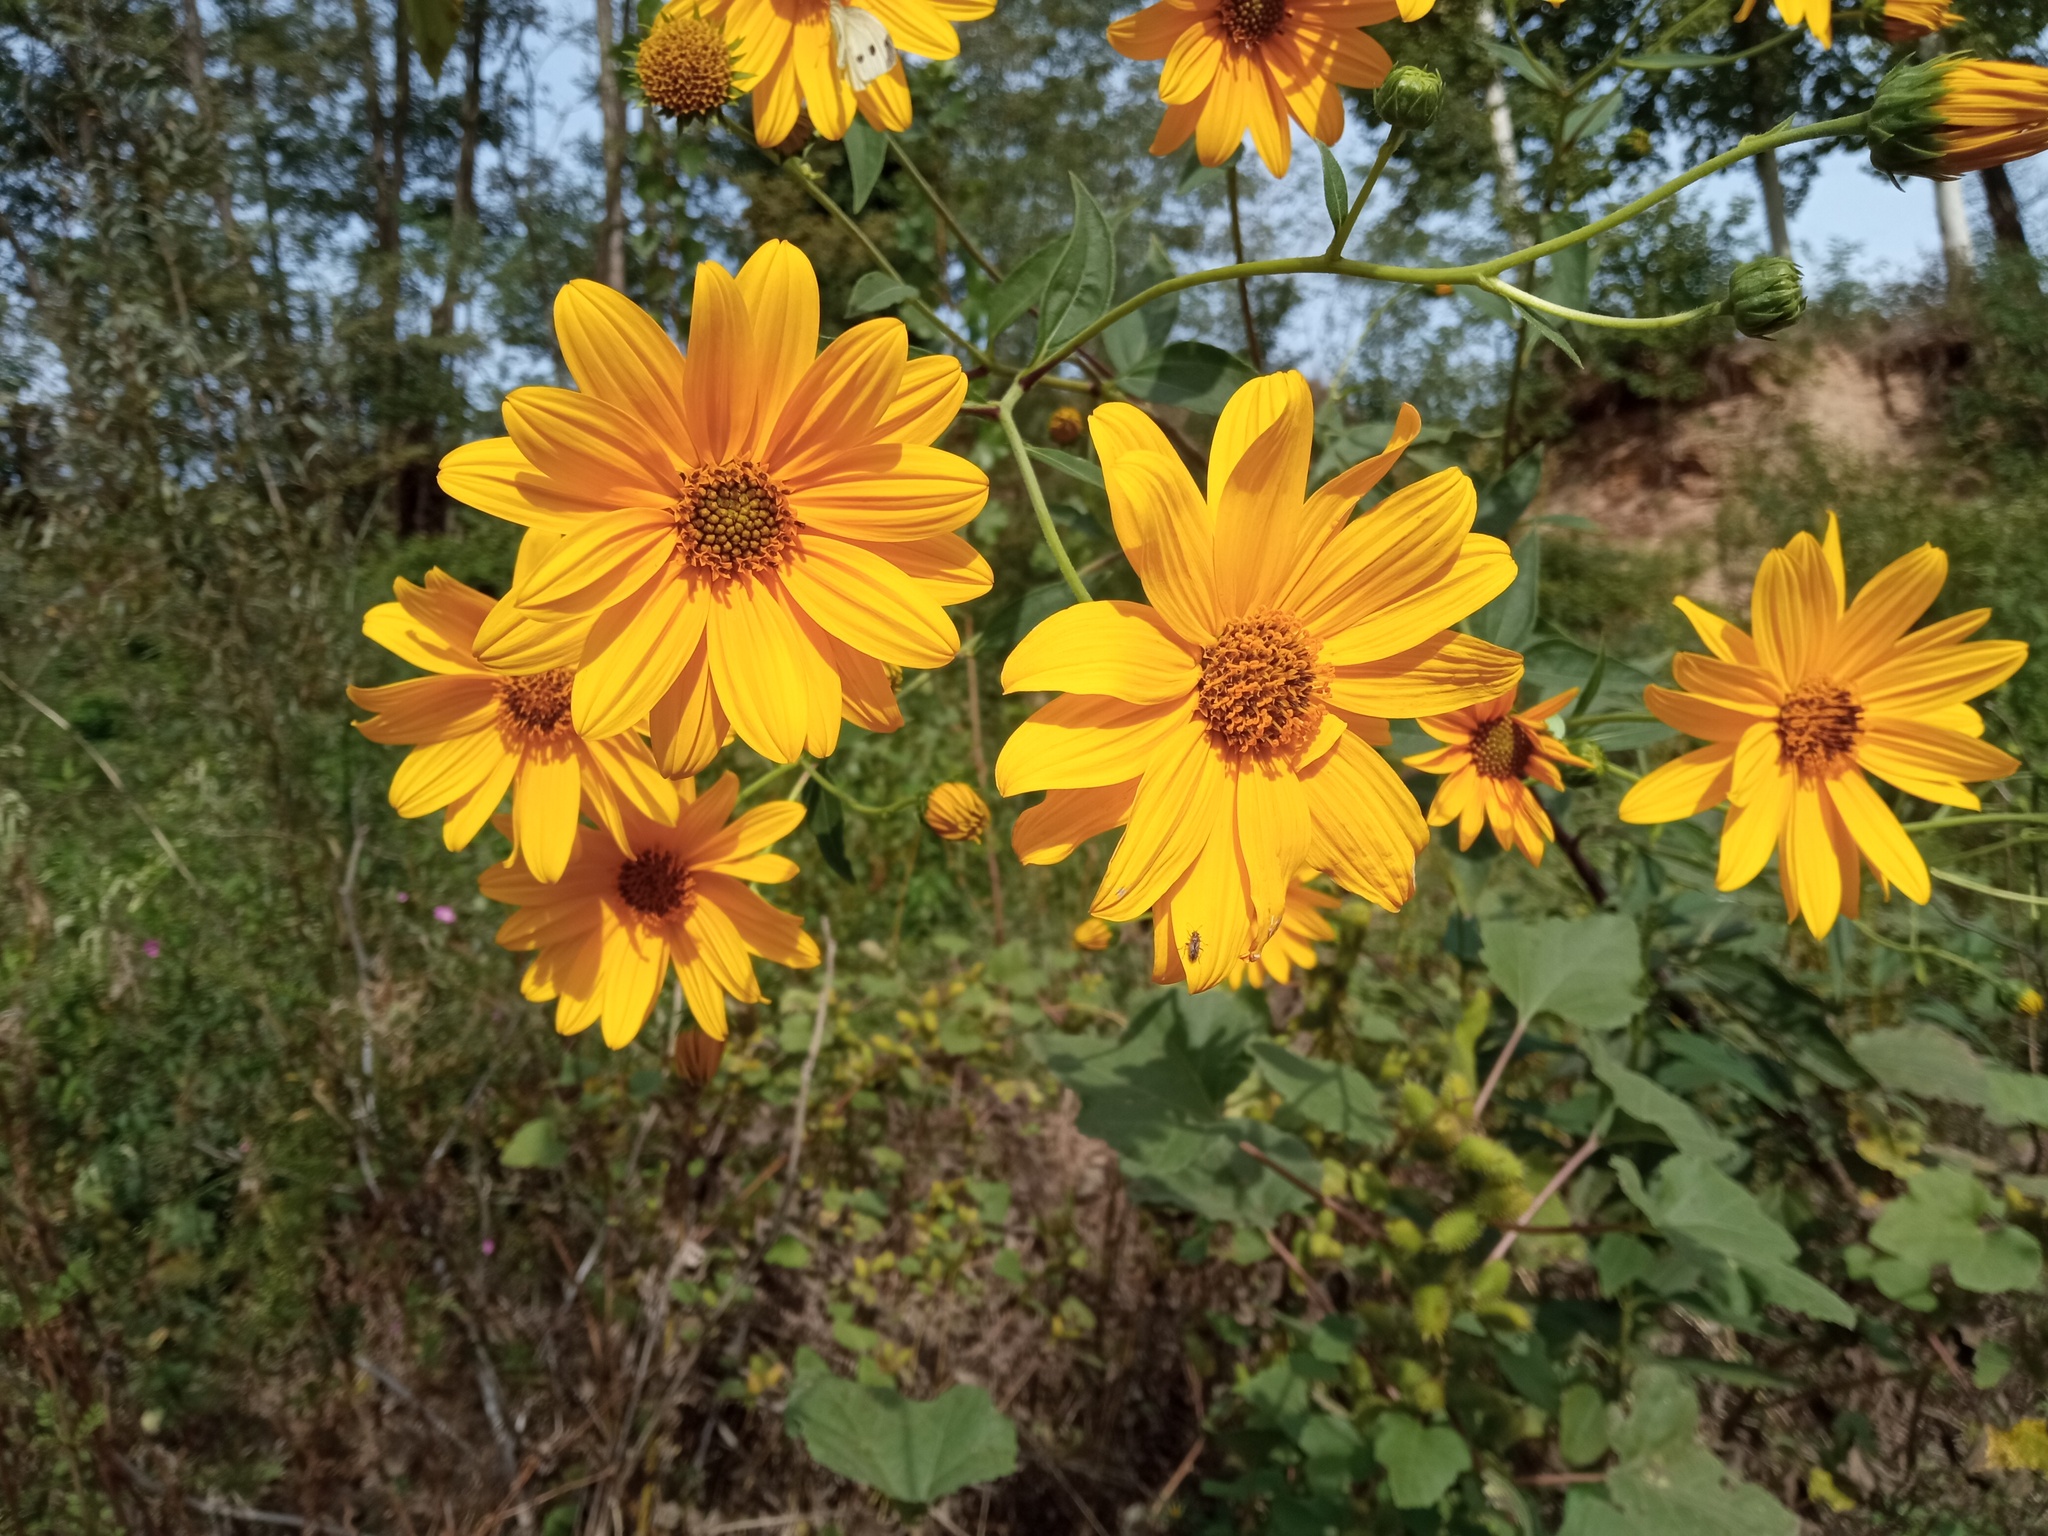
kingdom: Plantae
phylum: Tracheophyta
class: Magnoliopsida
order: Asterales
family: Asteraceae
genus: Helianthus
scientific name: Helianthus tuberosus
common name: Jerusalem artichoke
